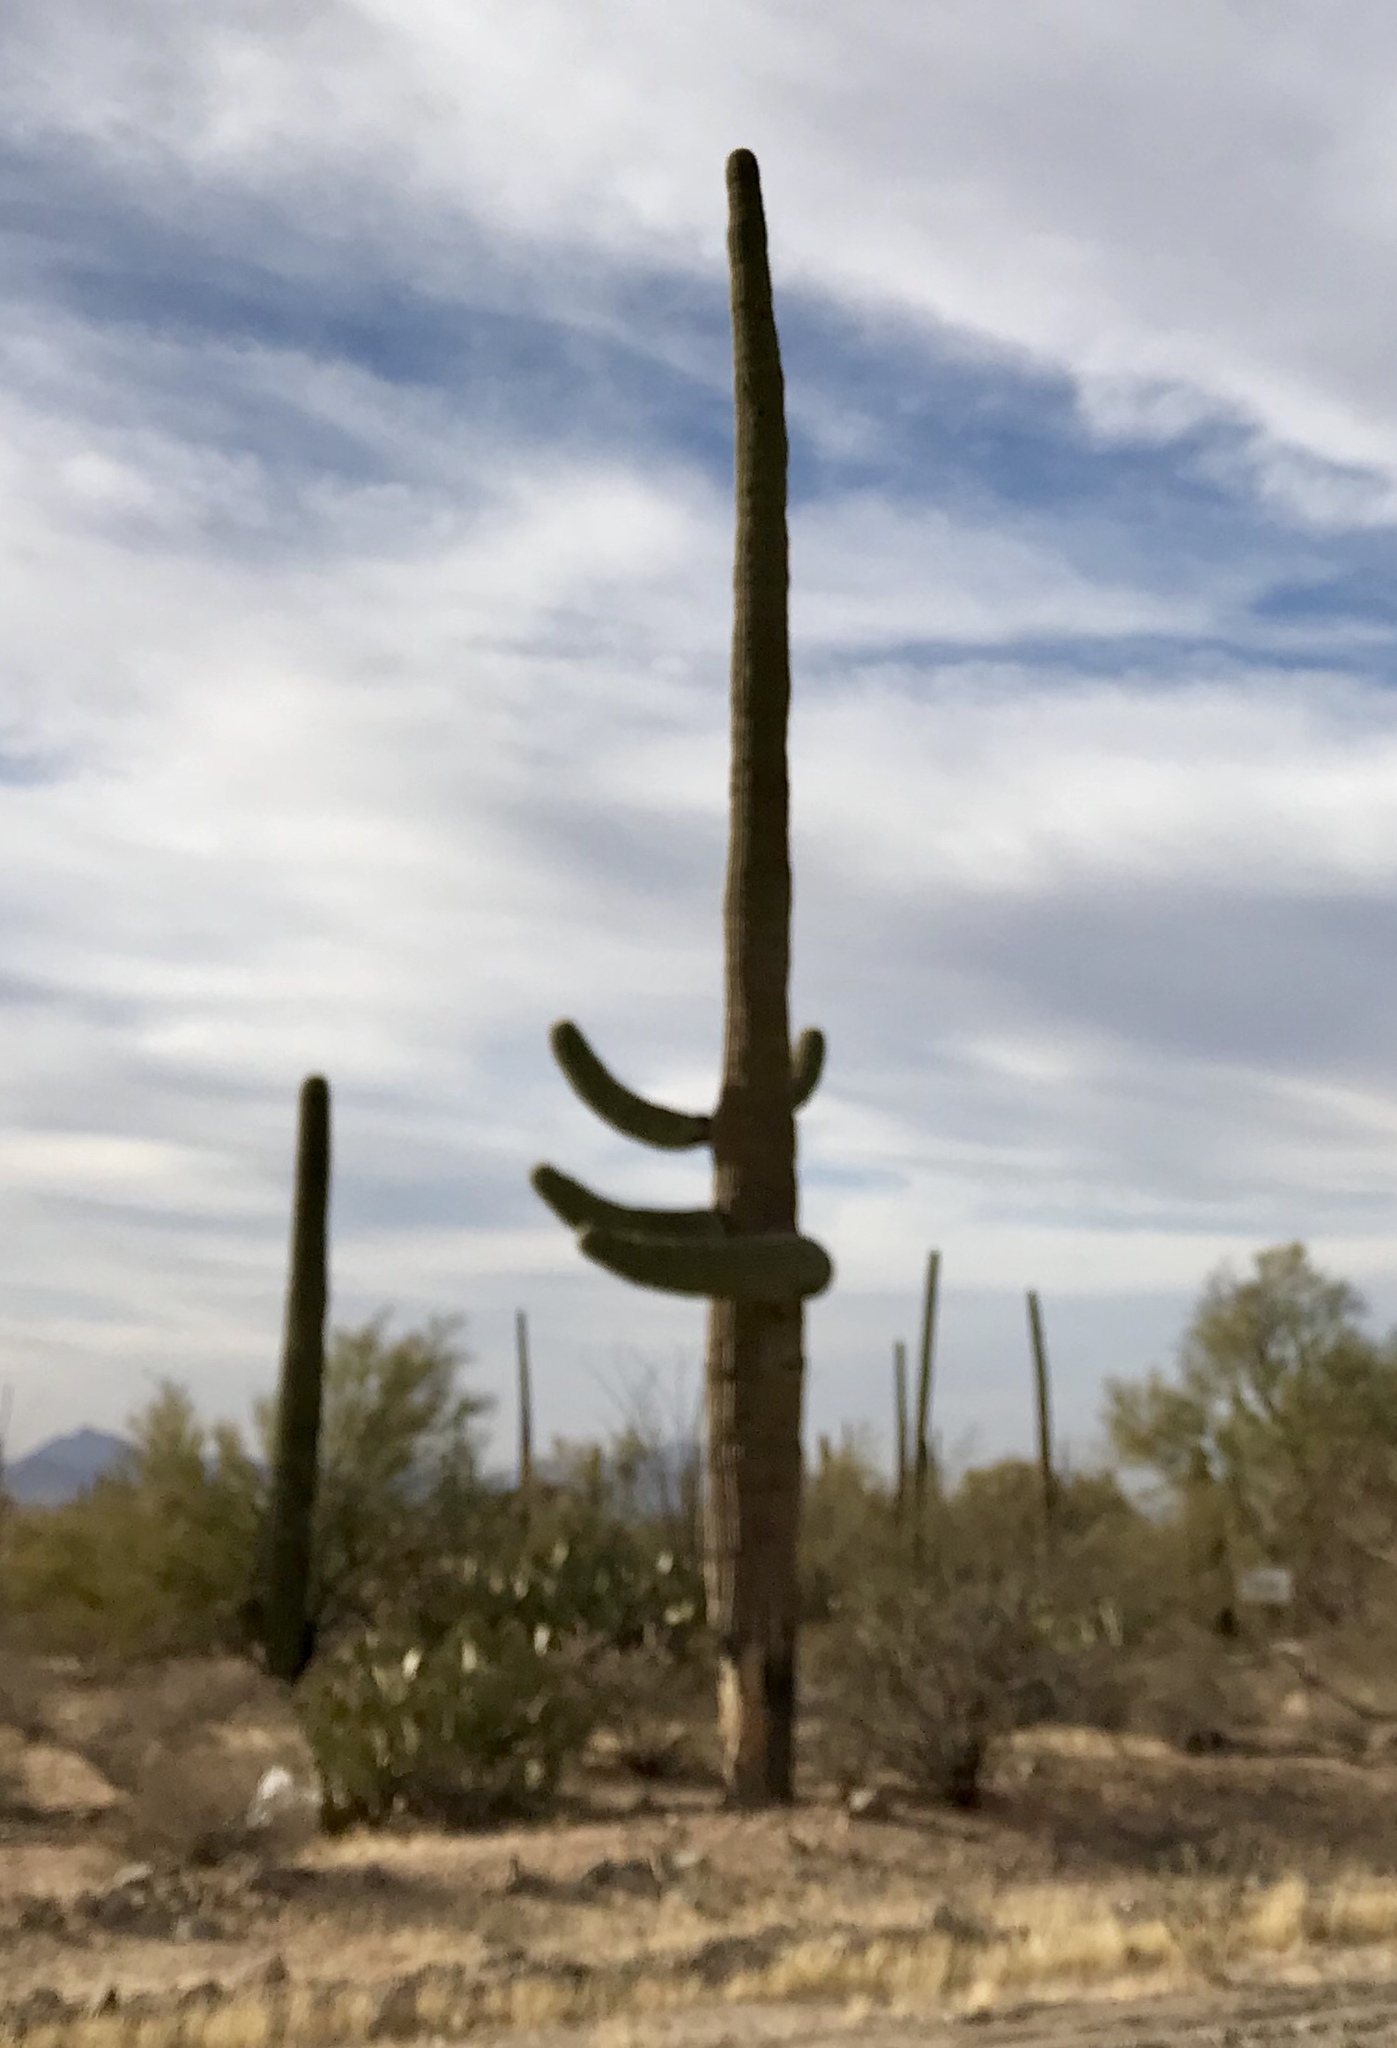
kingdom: Plantae
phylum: Tracheophyta
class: Magnoliopsida
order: Caryophyllales
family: Cactaceae
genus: Carnegiea
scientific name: Carnegiea gigantea
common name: Saguaro
